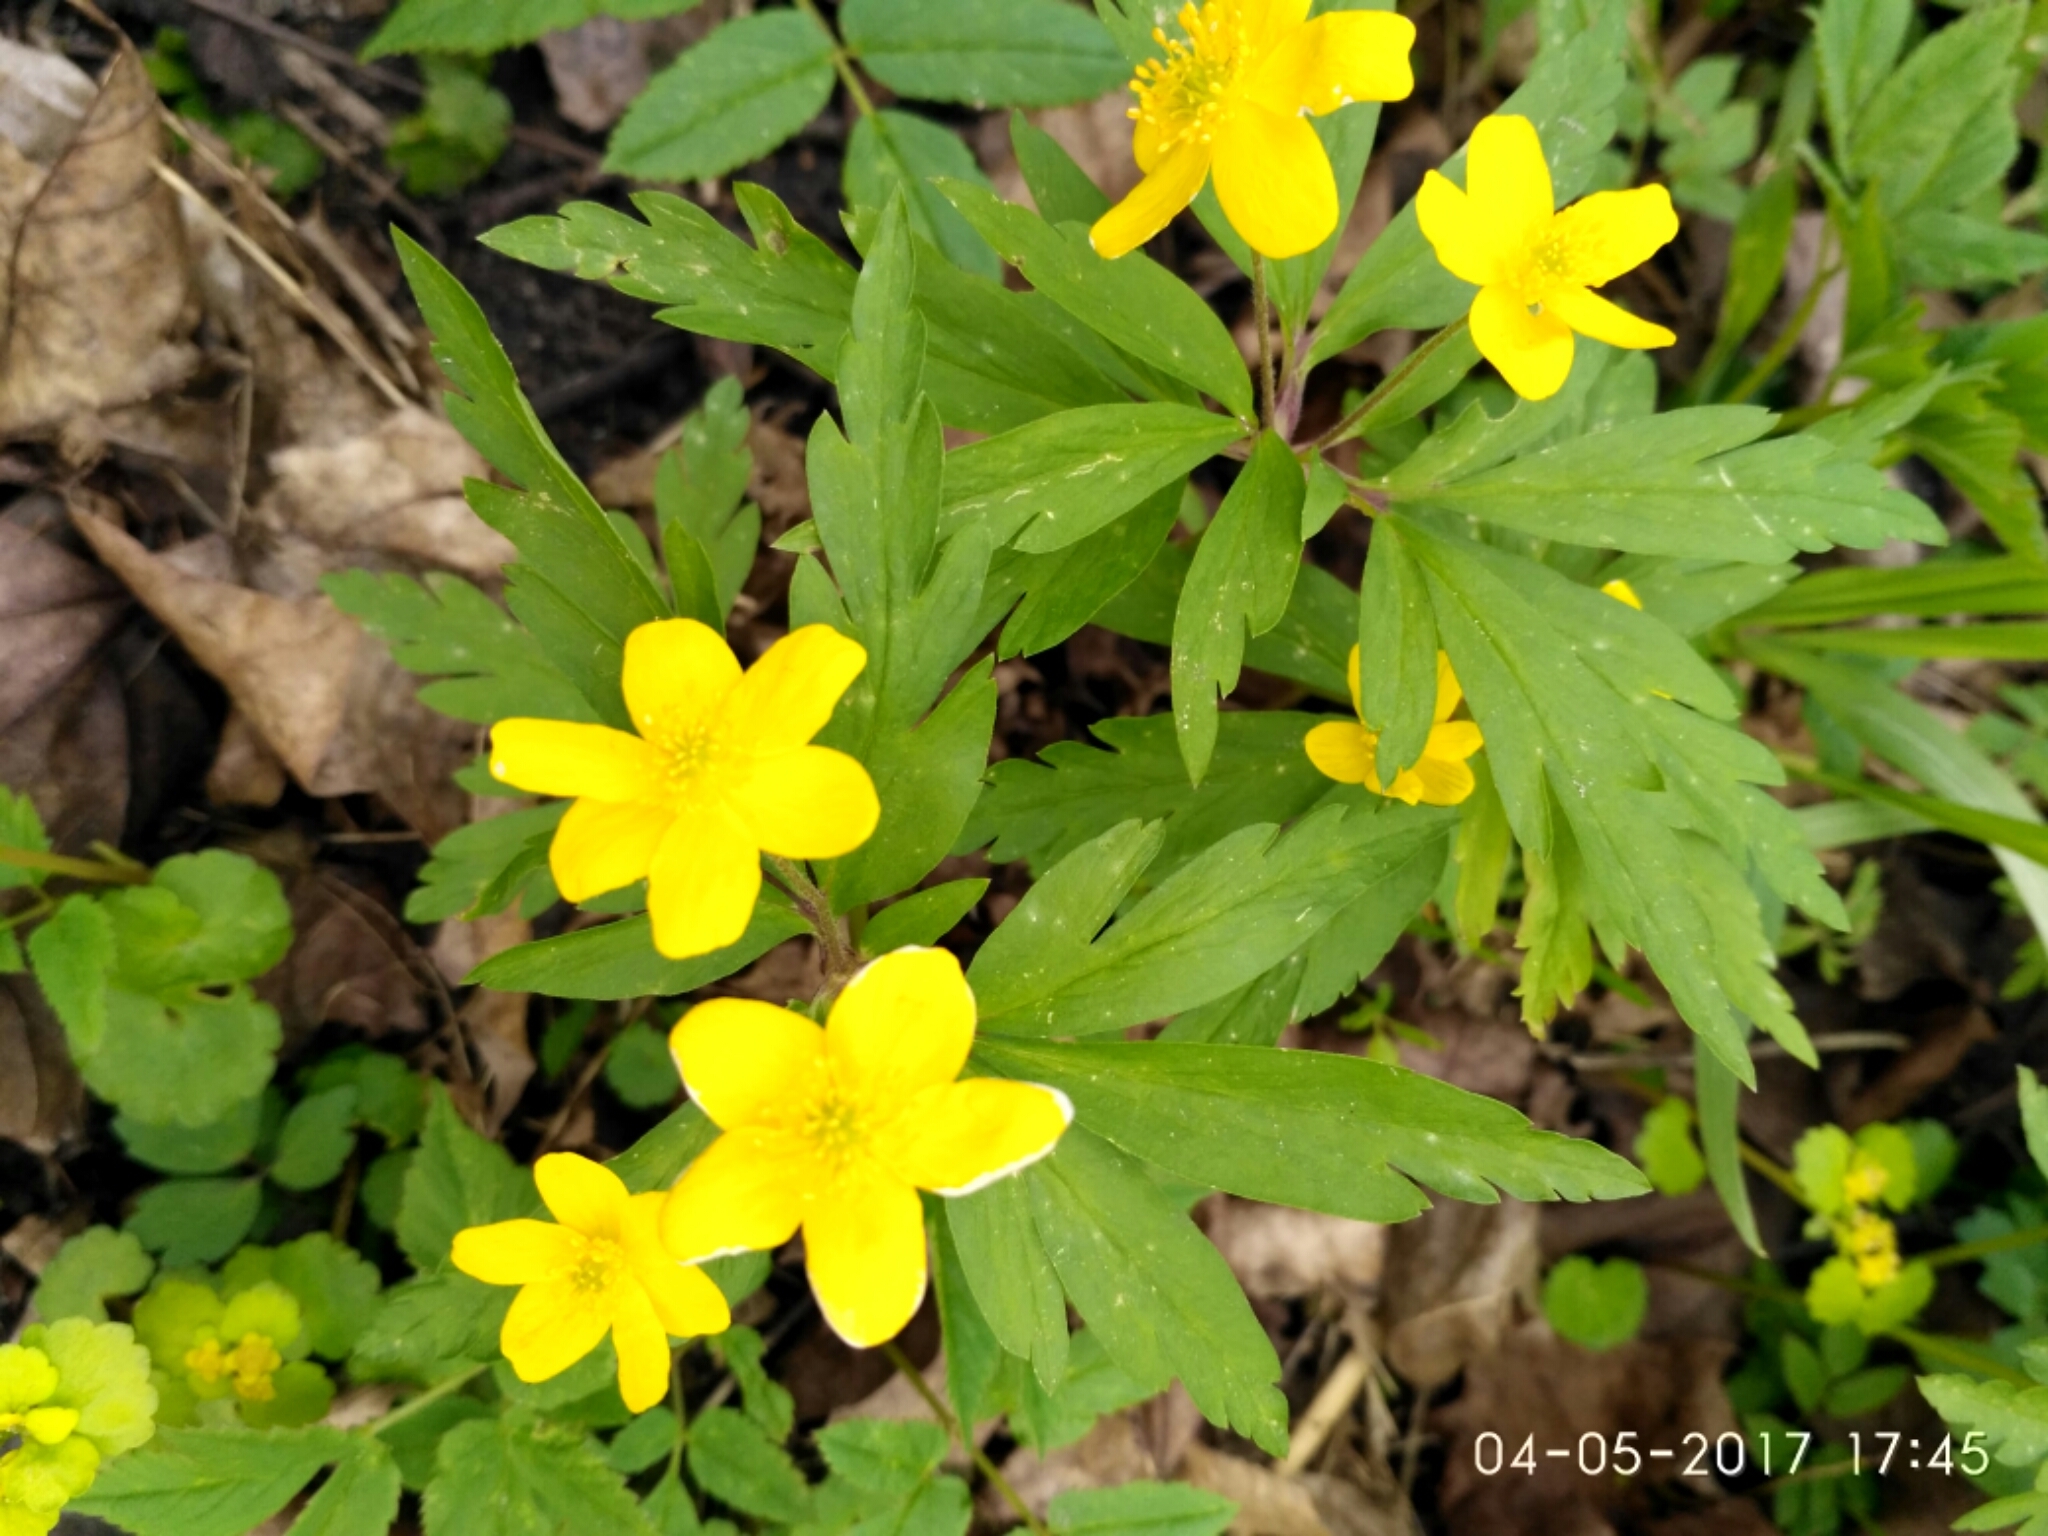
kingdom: Plantae
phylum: Tracheophyta
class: Magnoliopsida
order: Ranunculales
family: Ranunculaceae
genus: Anemone
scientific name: Anemone ranunculoides
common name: Yellow anemone
